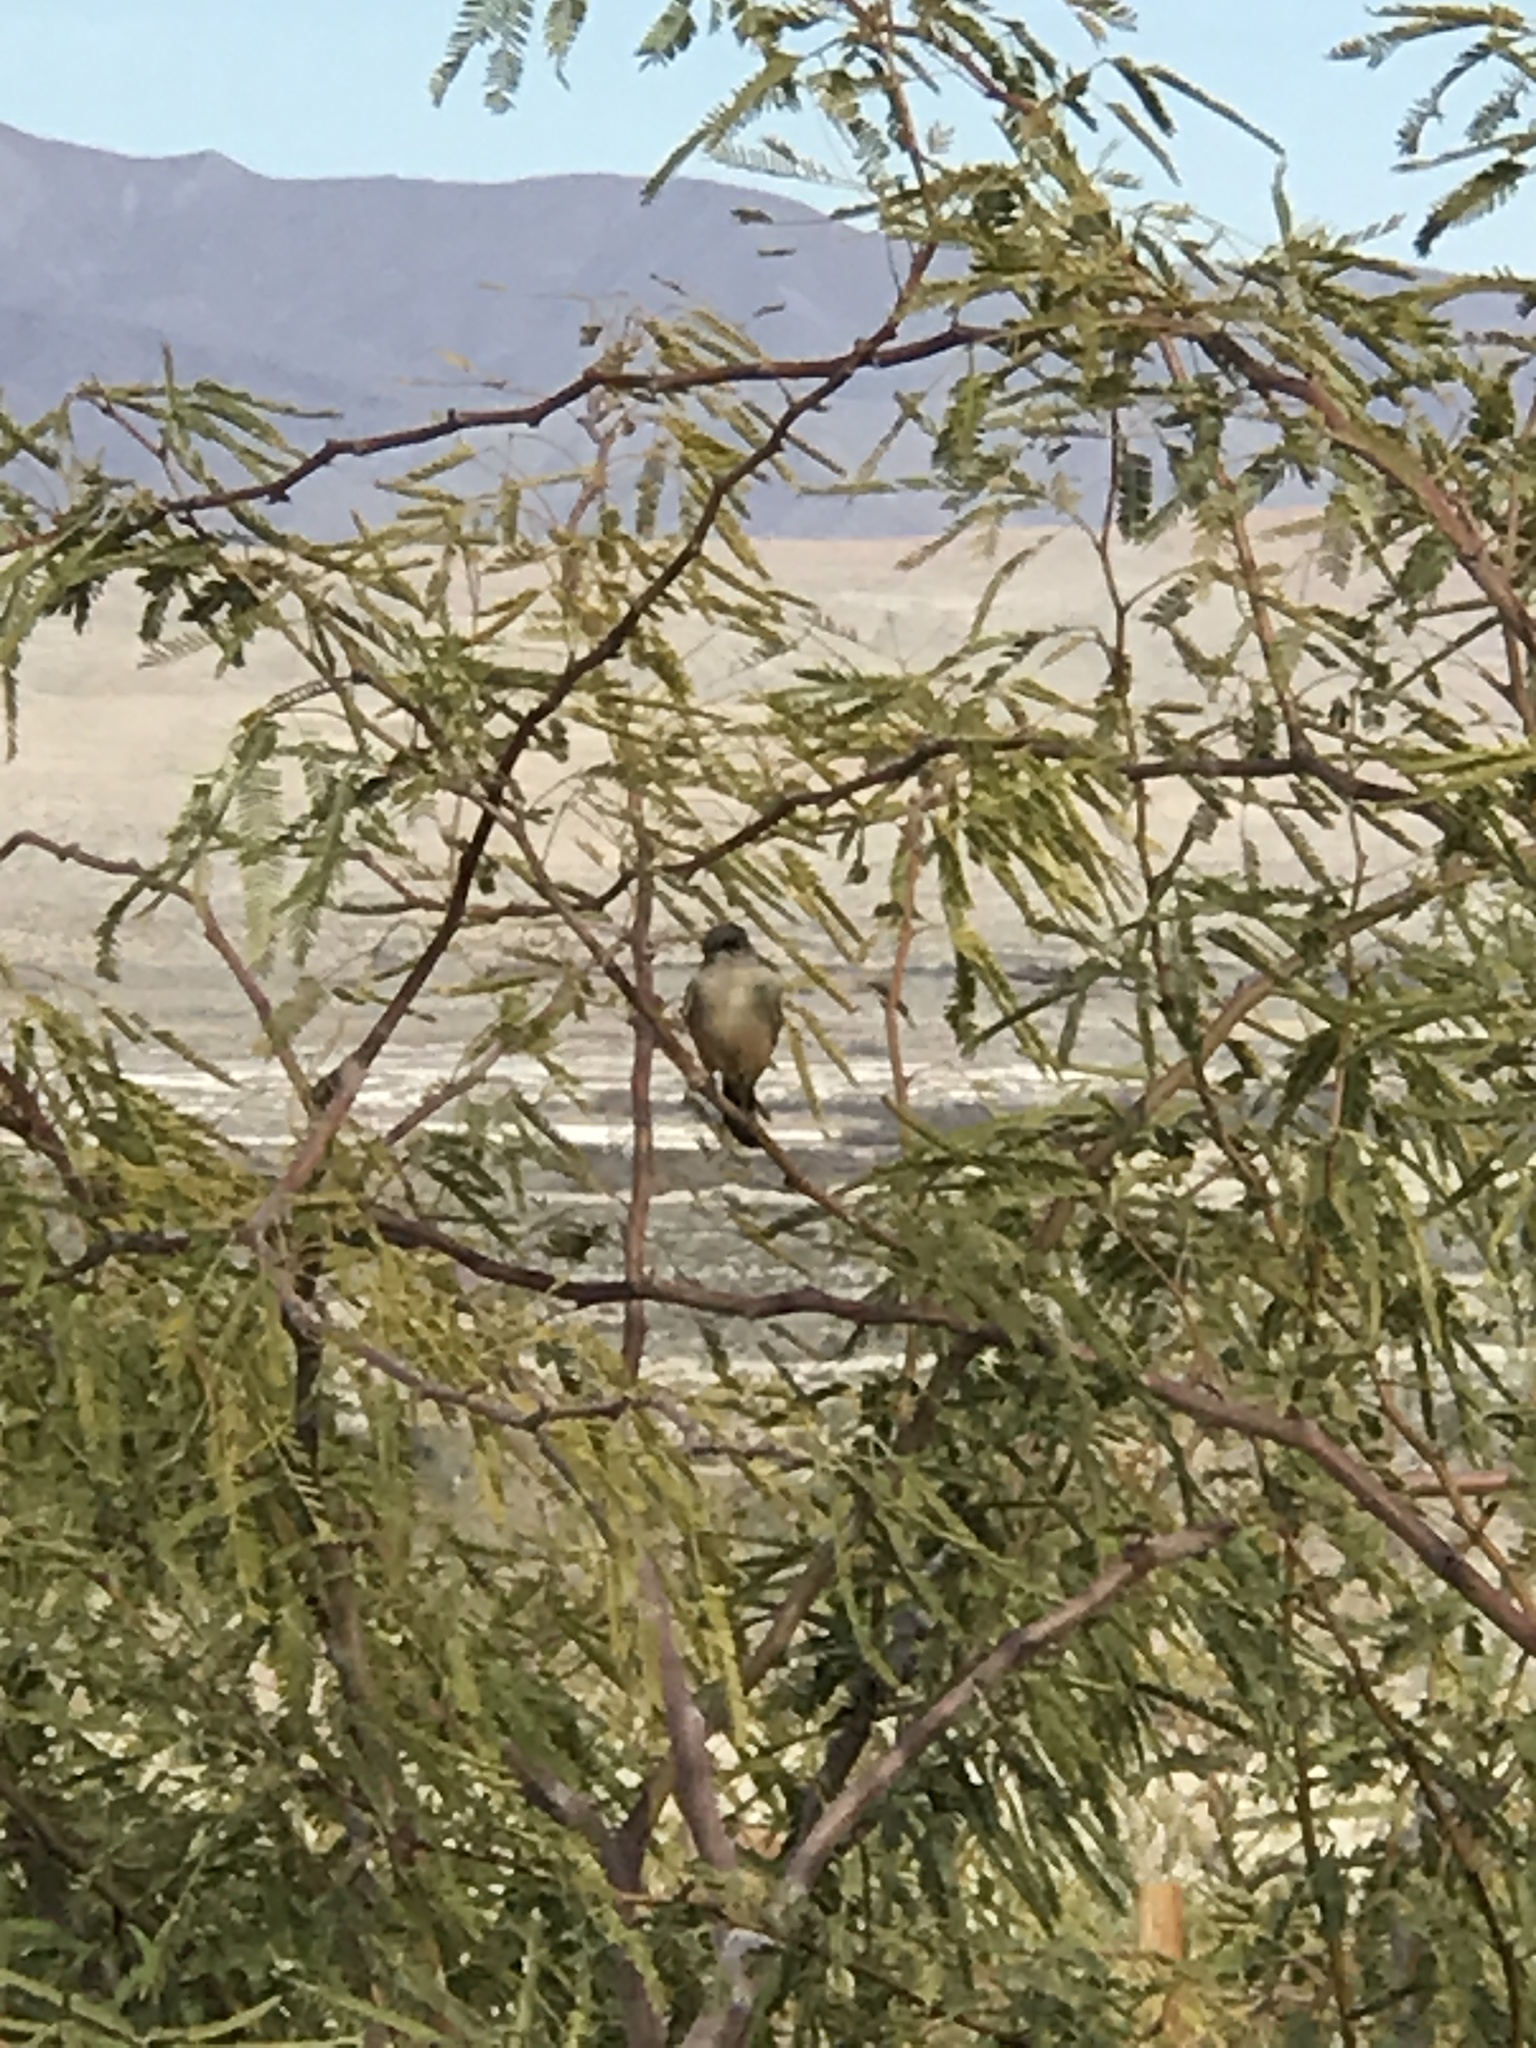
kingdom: Animalia
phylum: Chordata
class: Aves
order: Passeriformes
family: Tyrannidae
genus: Sayornis
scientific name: Sayornis saya
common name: Say's phoebe
